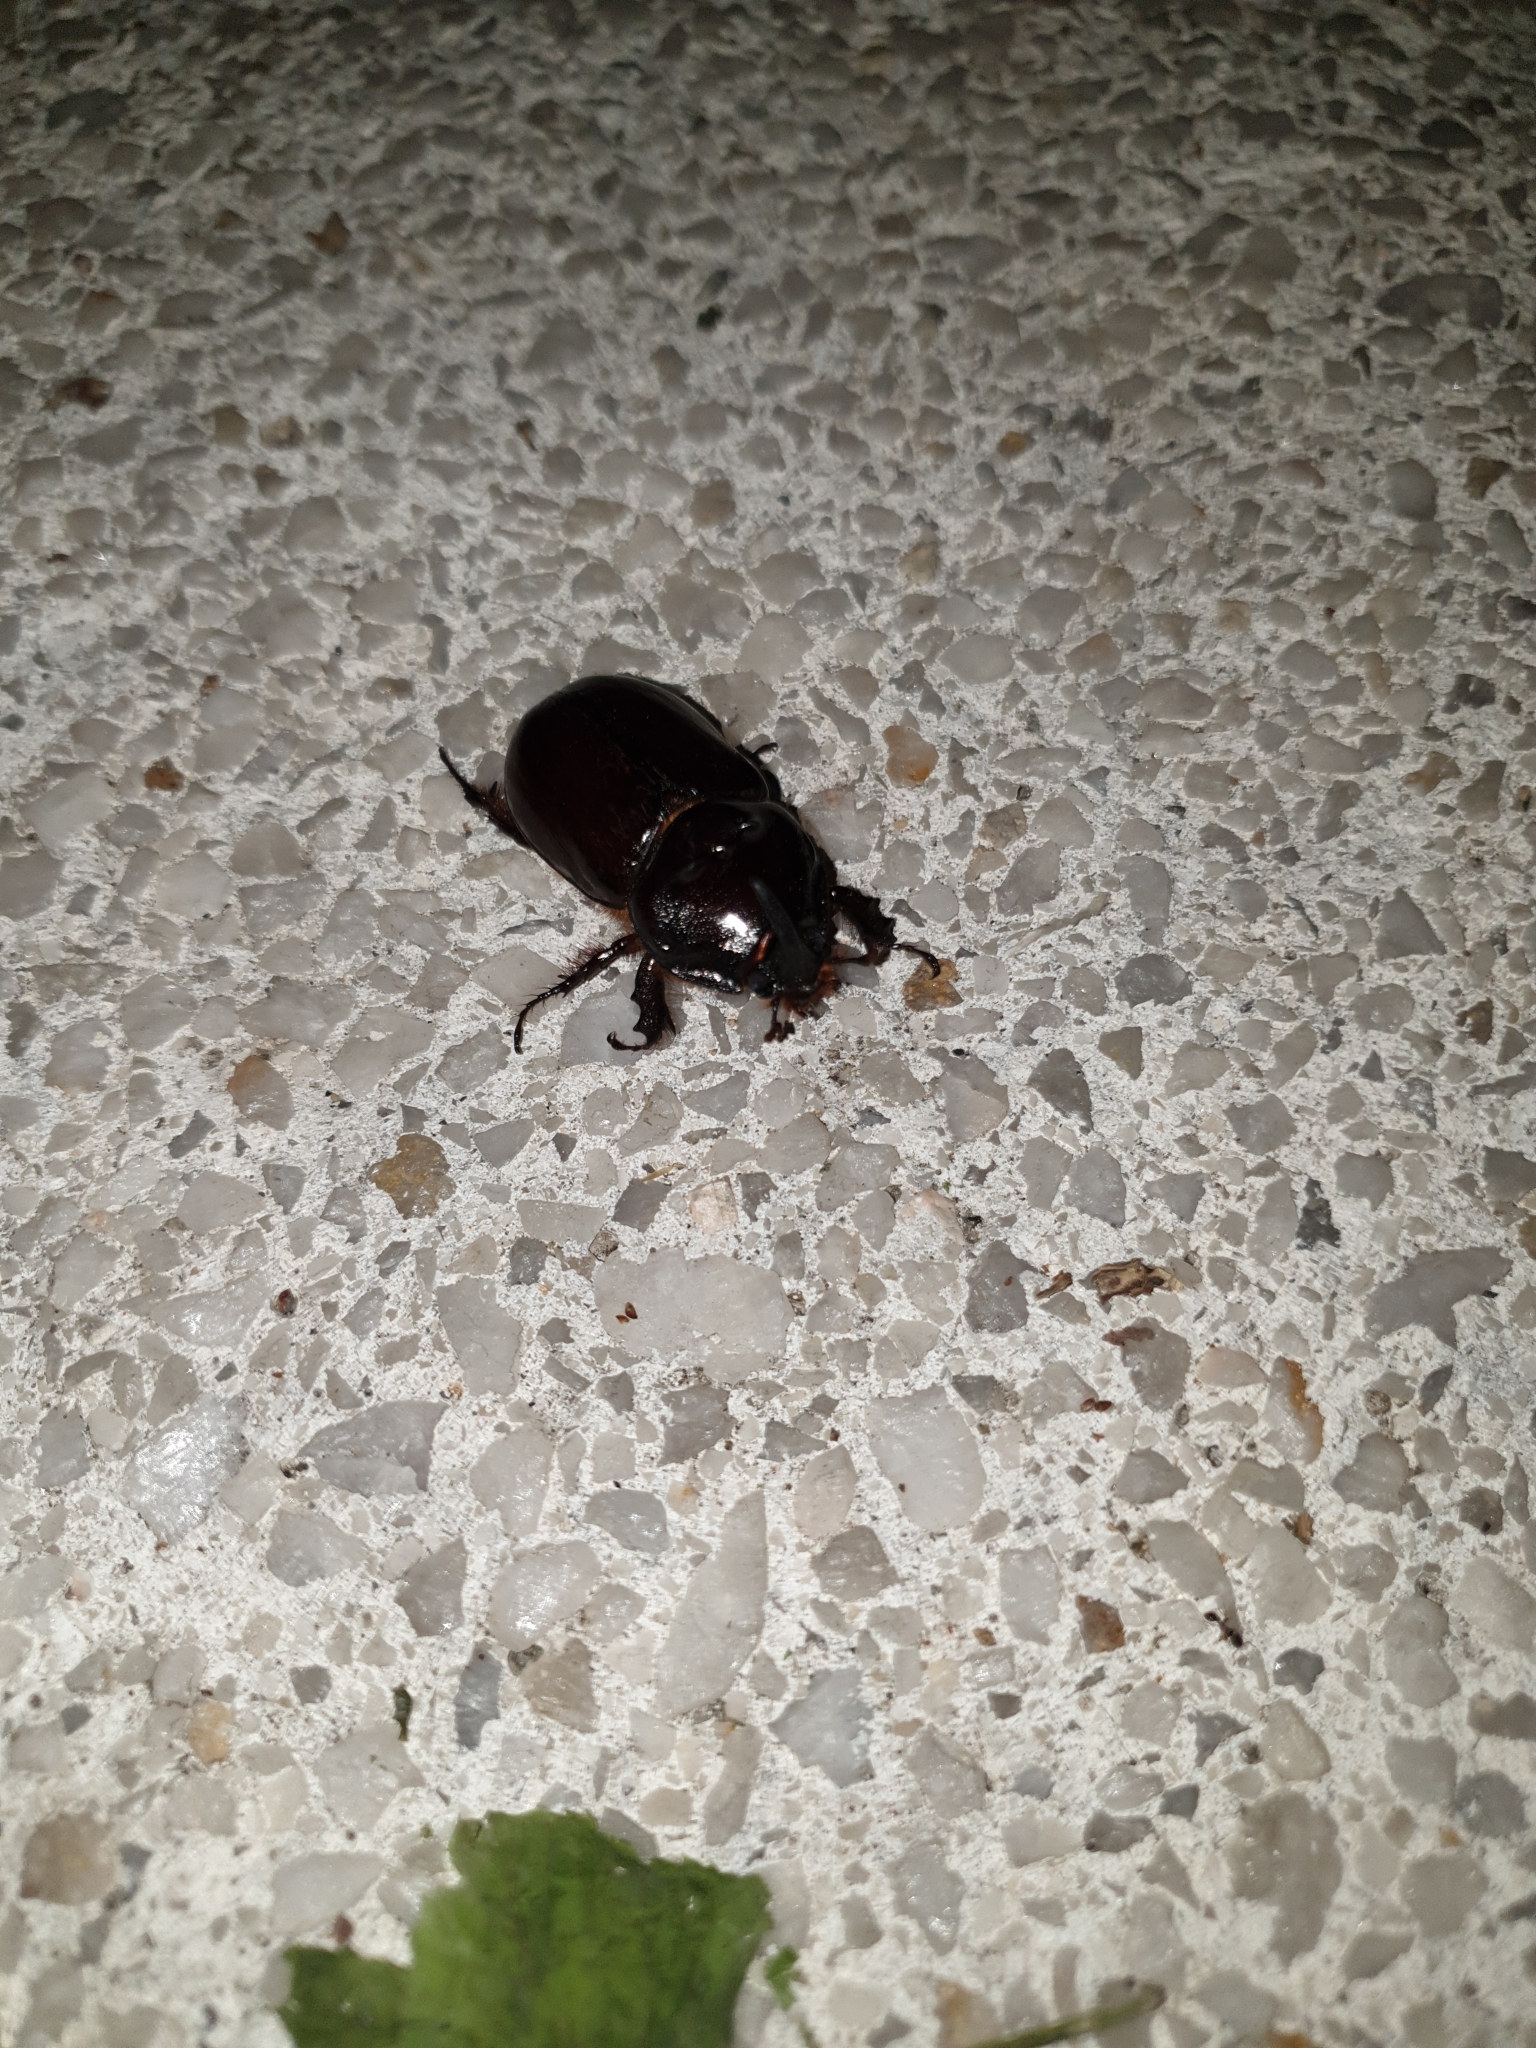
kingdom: Animalia
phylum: Arthropoda
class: Insecta
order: Coleoptera
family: Scarabaeidae
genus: Oryctes
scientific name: Oryctes nasicornis
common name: European rhinoceros beetle
